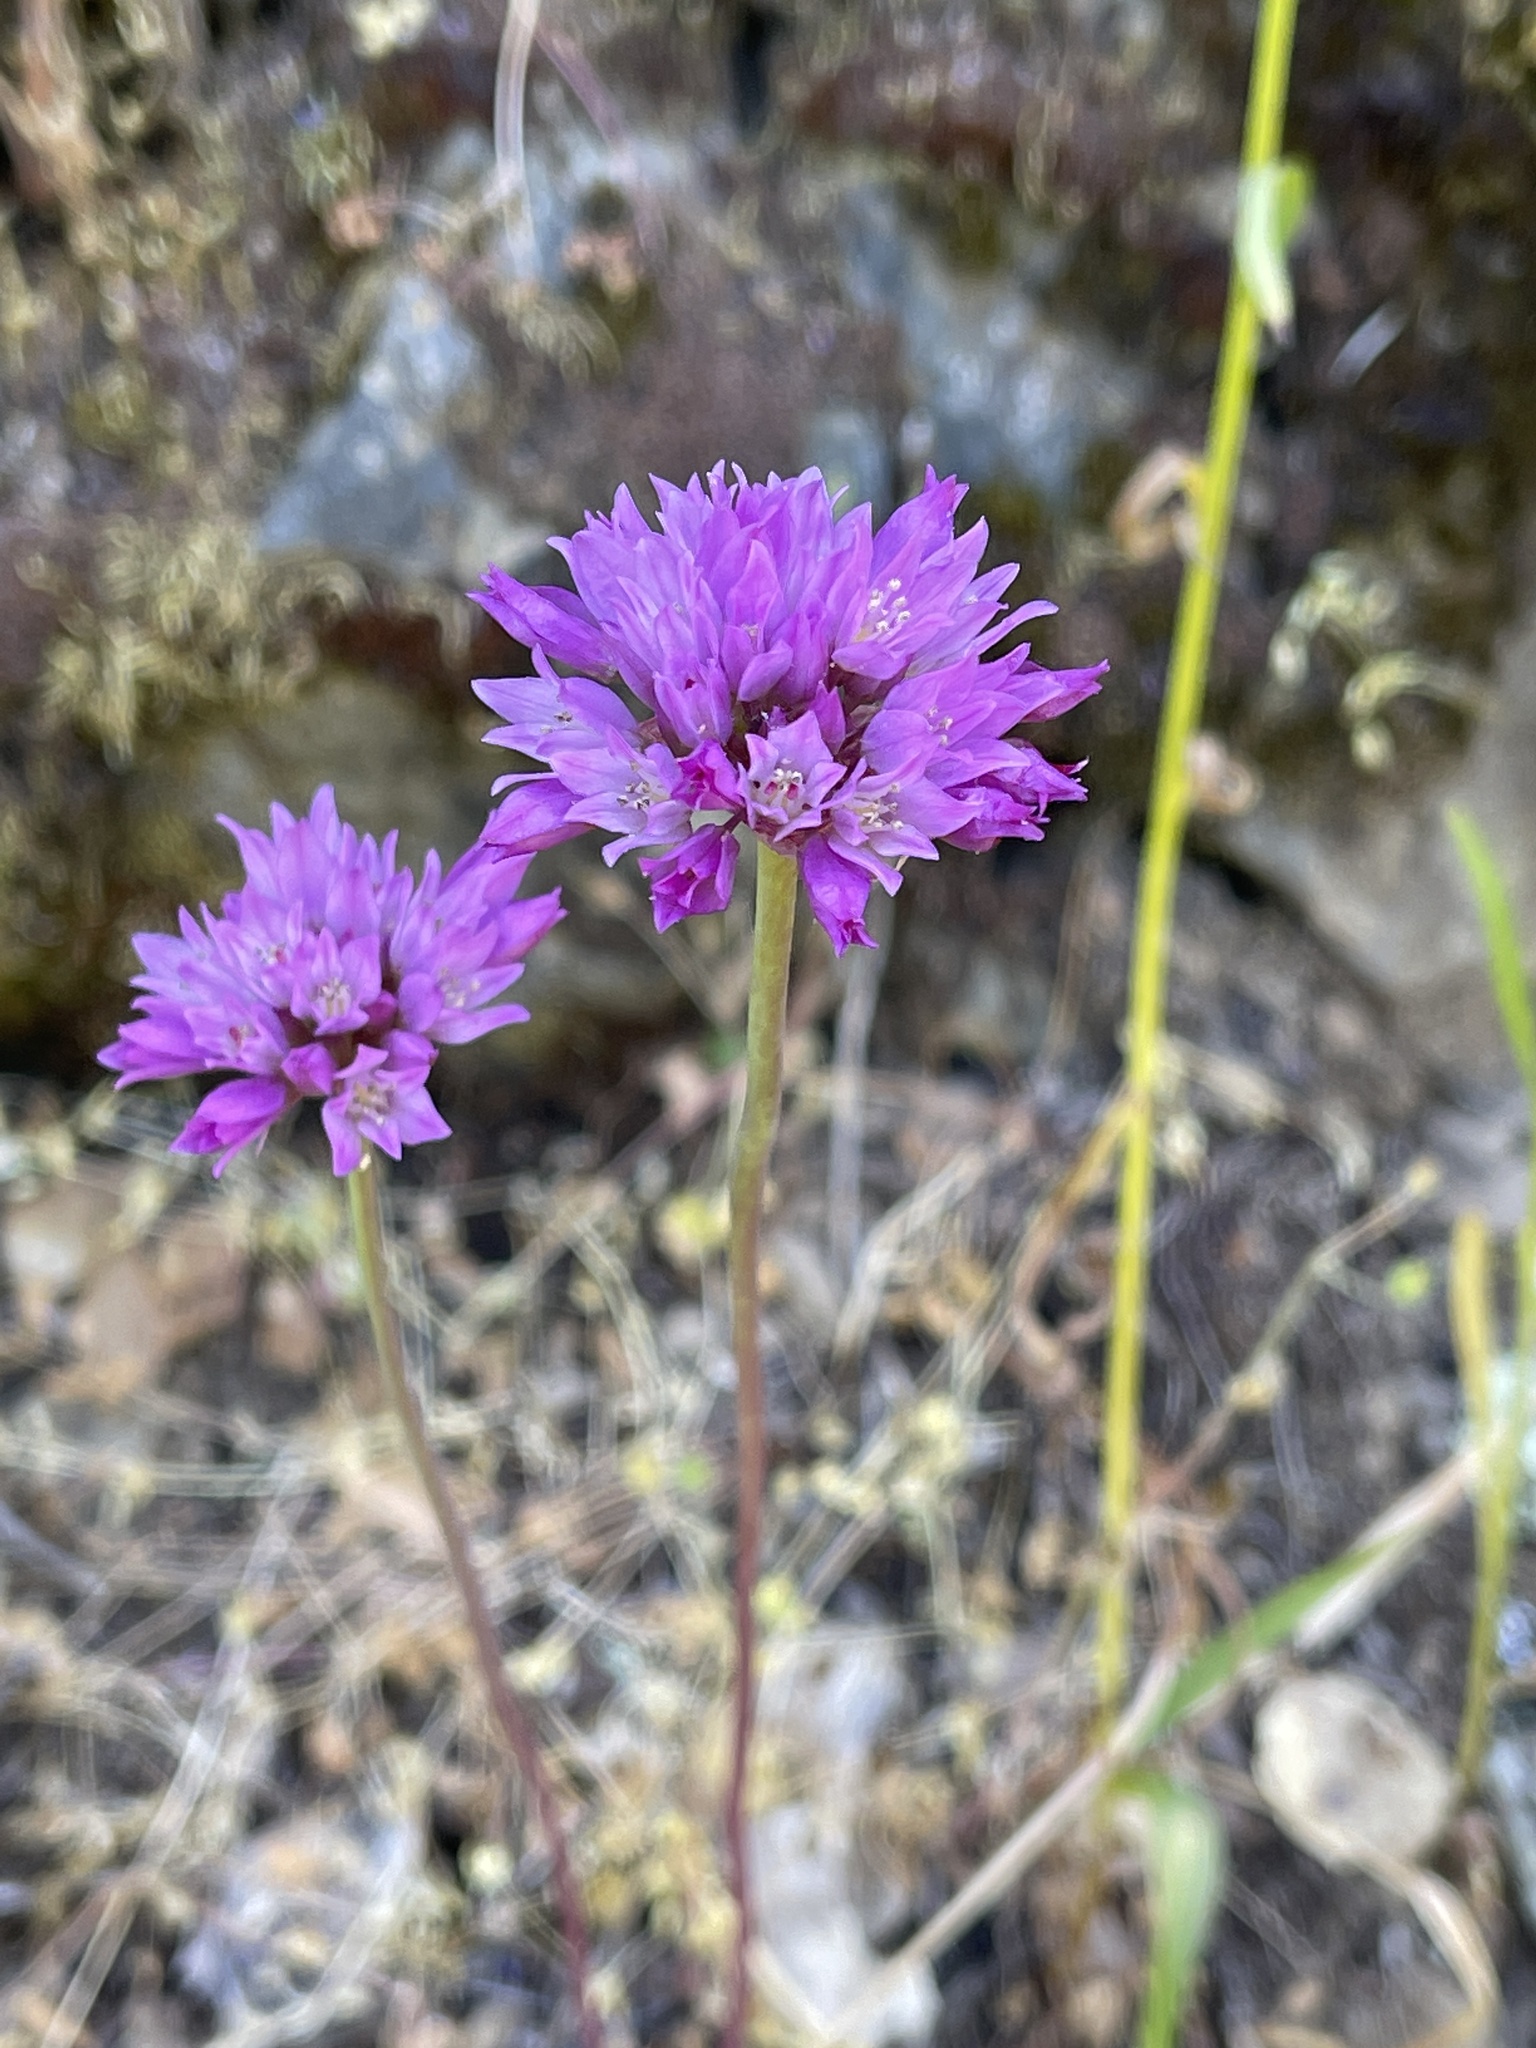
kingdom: Plantae
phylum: Tracheophyta
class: Liliopsida
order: Asparagales
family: Amaryllidaceae
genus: Allium
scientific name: Allium serra
